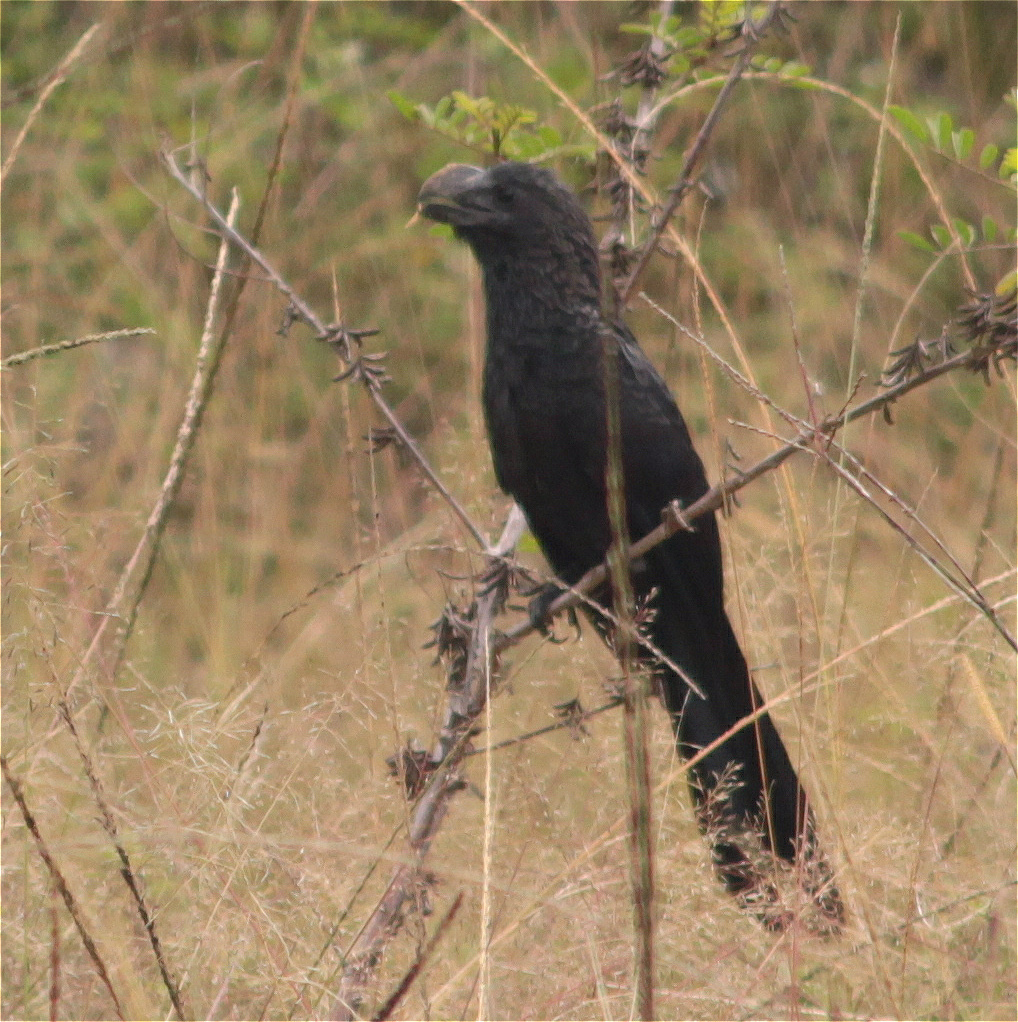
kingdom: Animalia
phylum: Chordata
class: Aves
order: Cuculiformes
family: Cuculidae
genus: Crotophaga
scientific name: Crotophaga ani
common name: Smooth-billed ani
